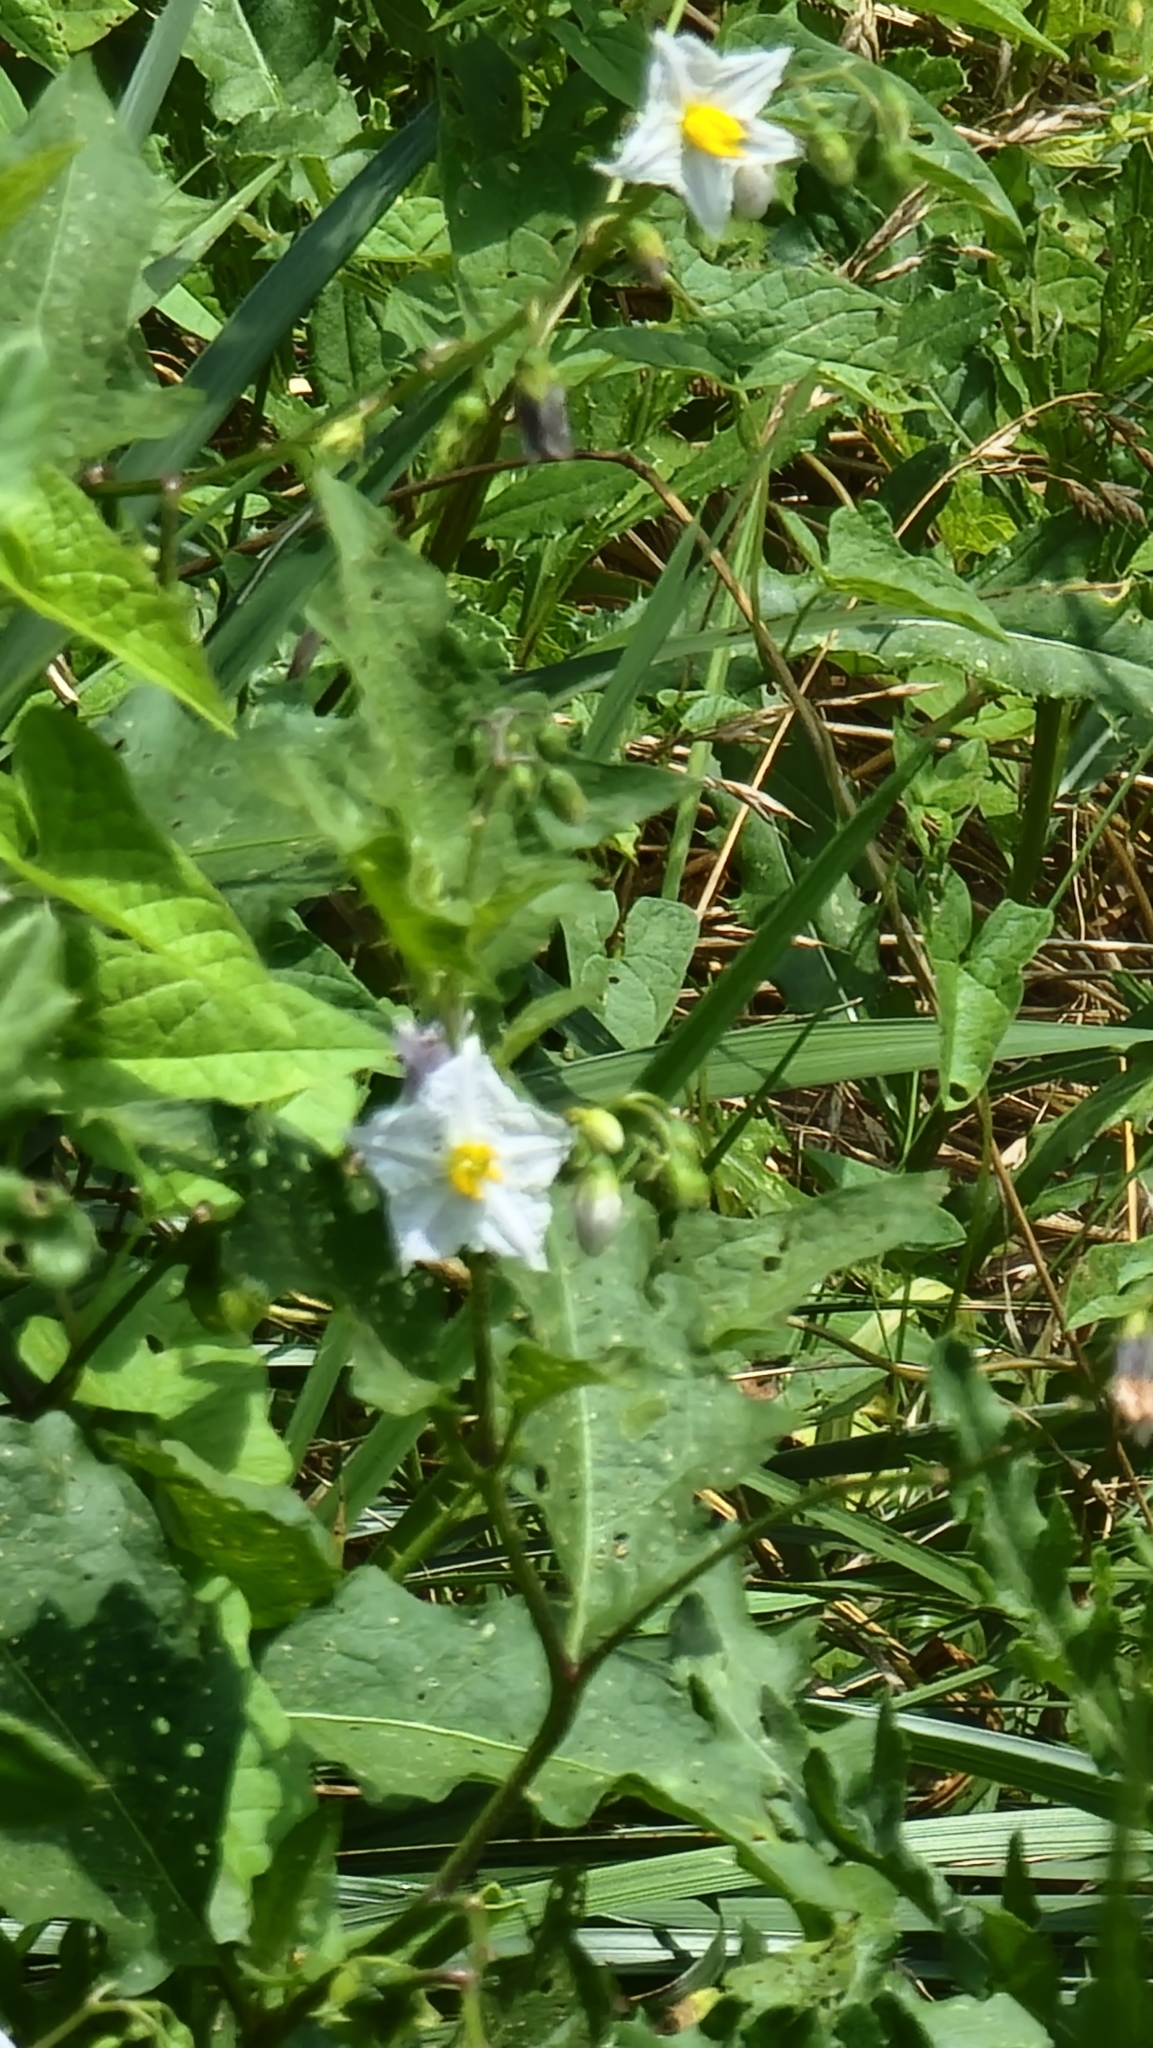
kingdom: Plantae
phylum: Tracheophyta
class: Magnoliopsida
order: Solanales
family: Solanaceae
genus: Solanum
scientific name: Solanum carolinense
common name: Horse-nettle
